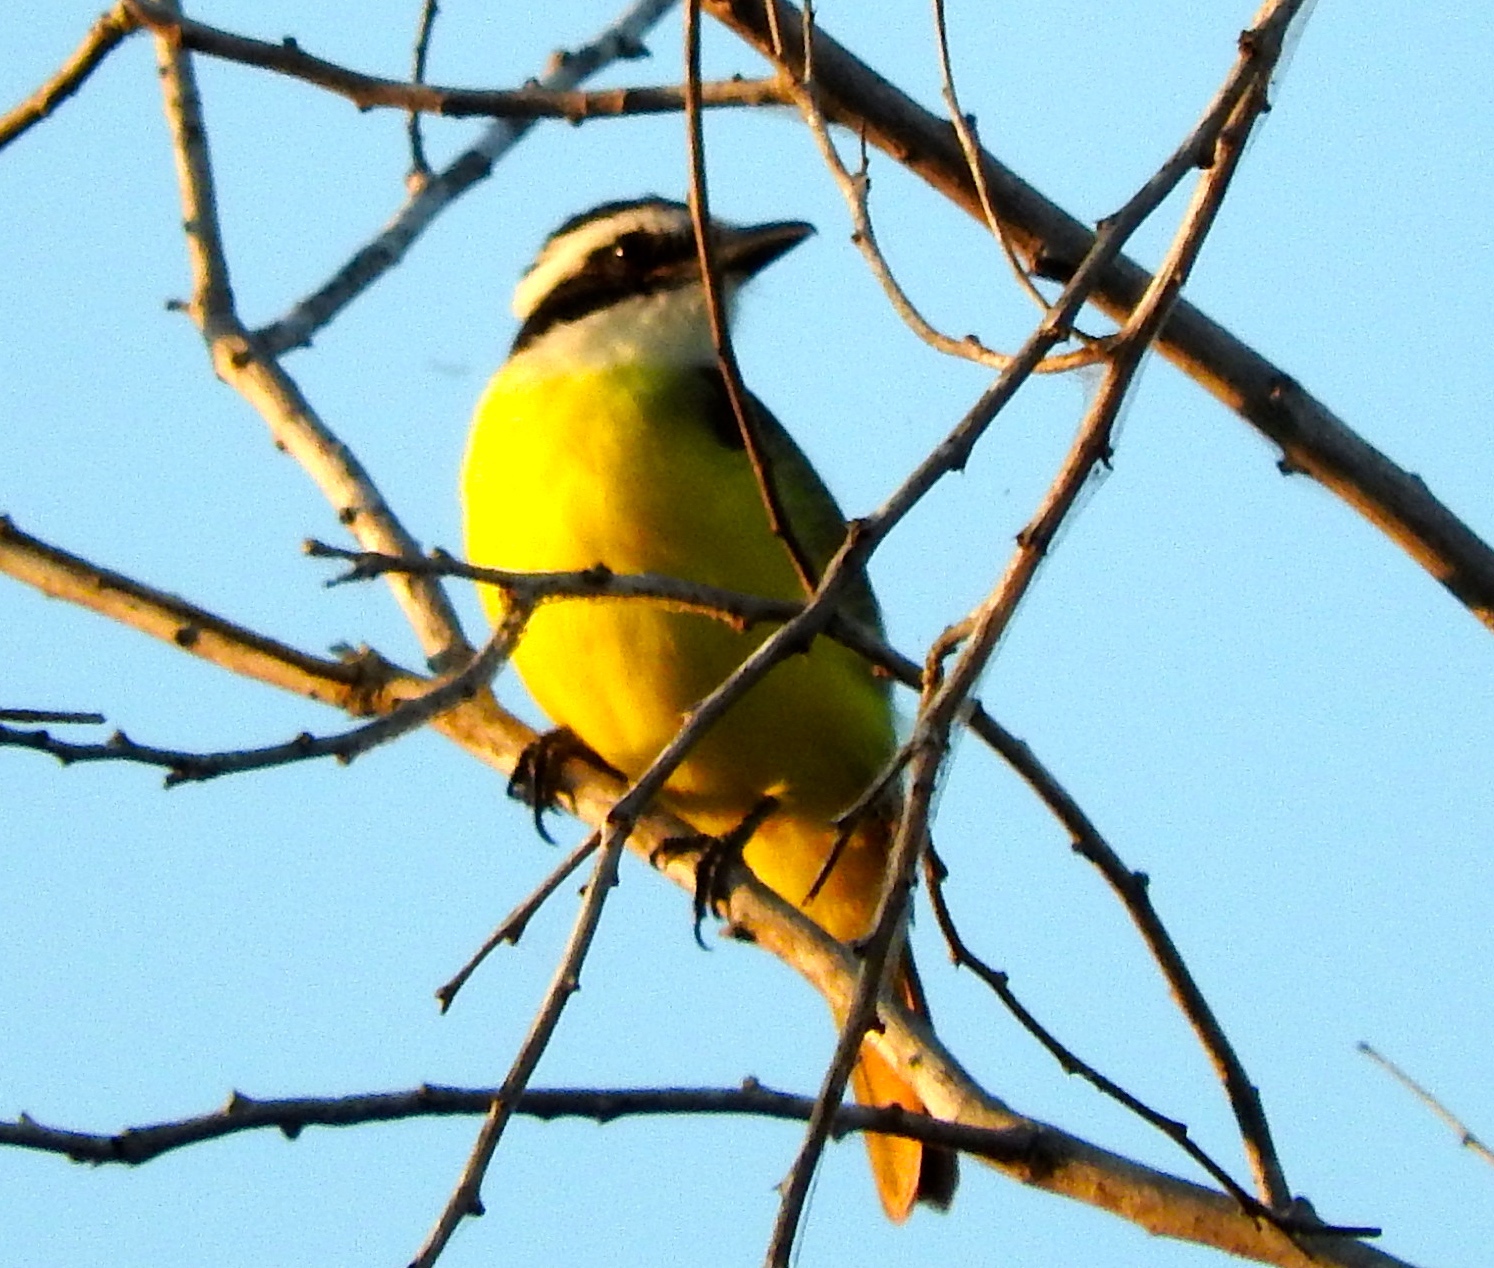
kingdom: Animalia
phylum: Chordata
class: Aves
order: Passeriformes
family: Tyrannidae
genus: Pitangus
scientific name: Pitangus sulphuratus
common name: Great kiskadee
